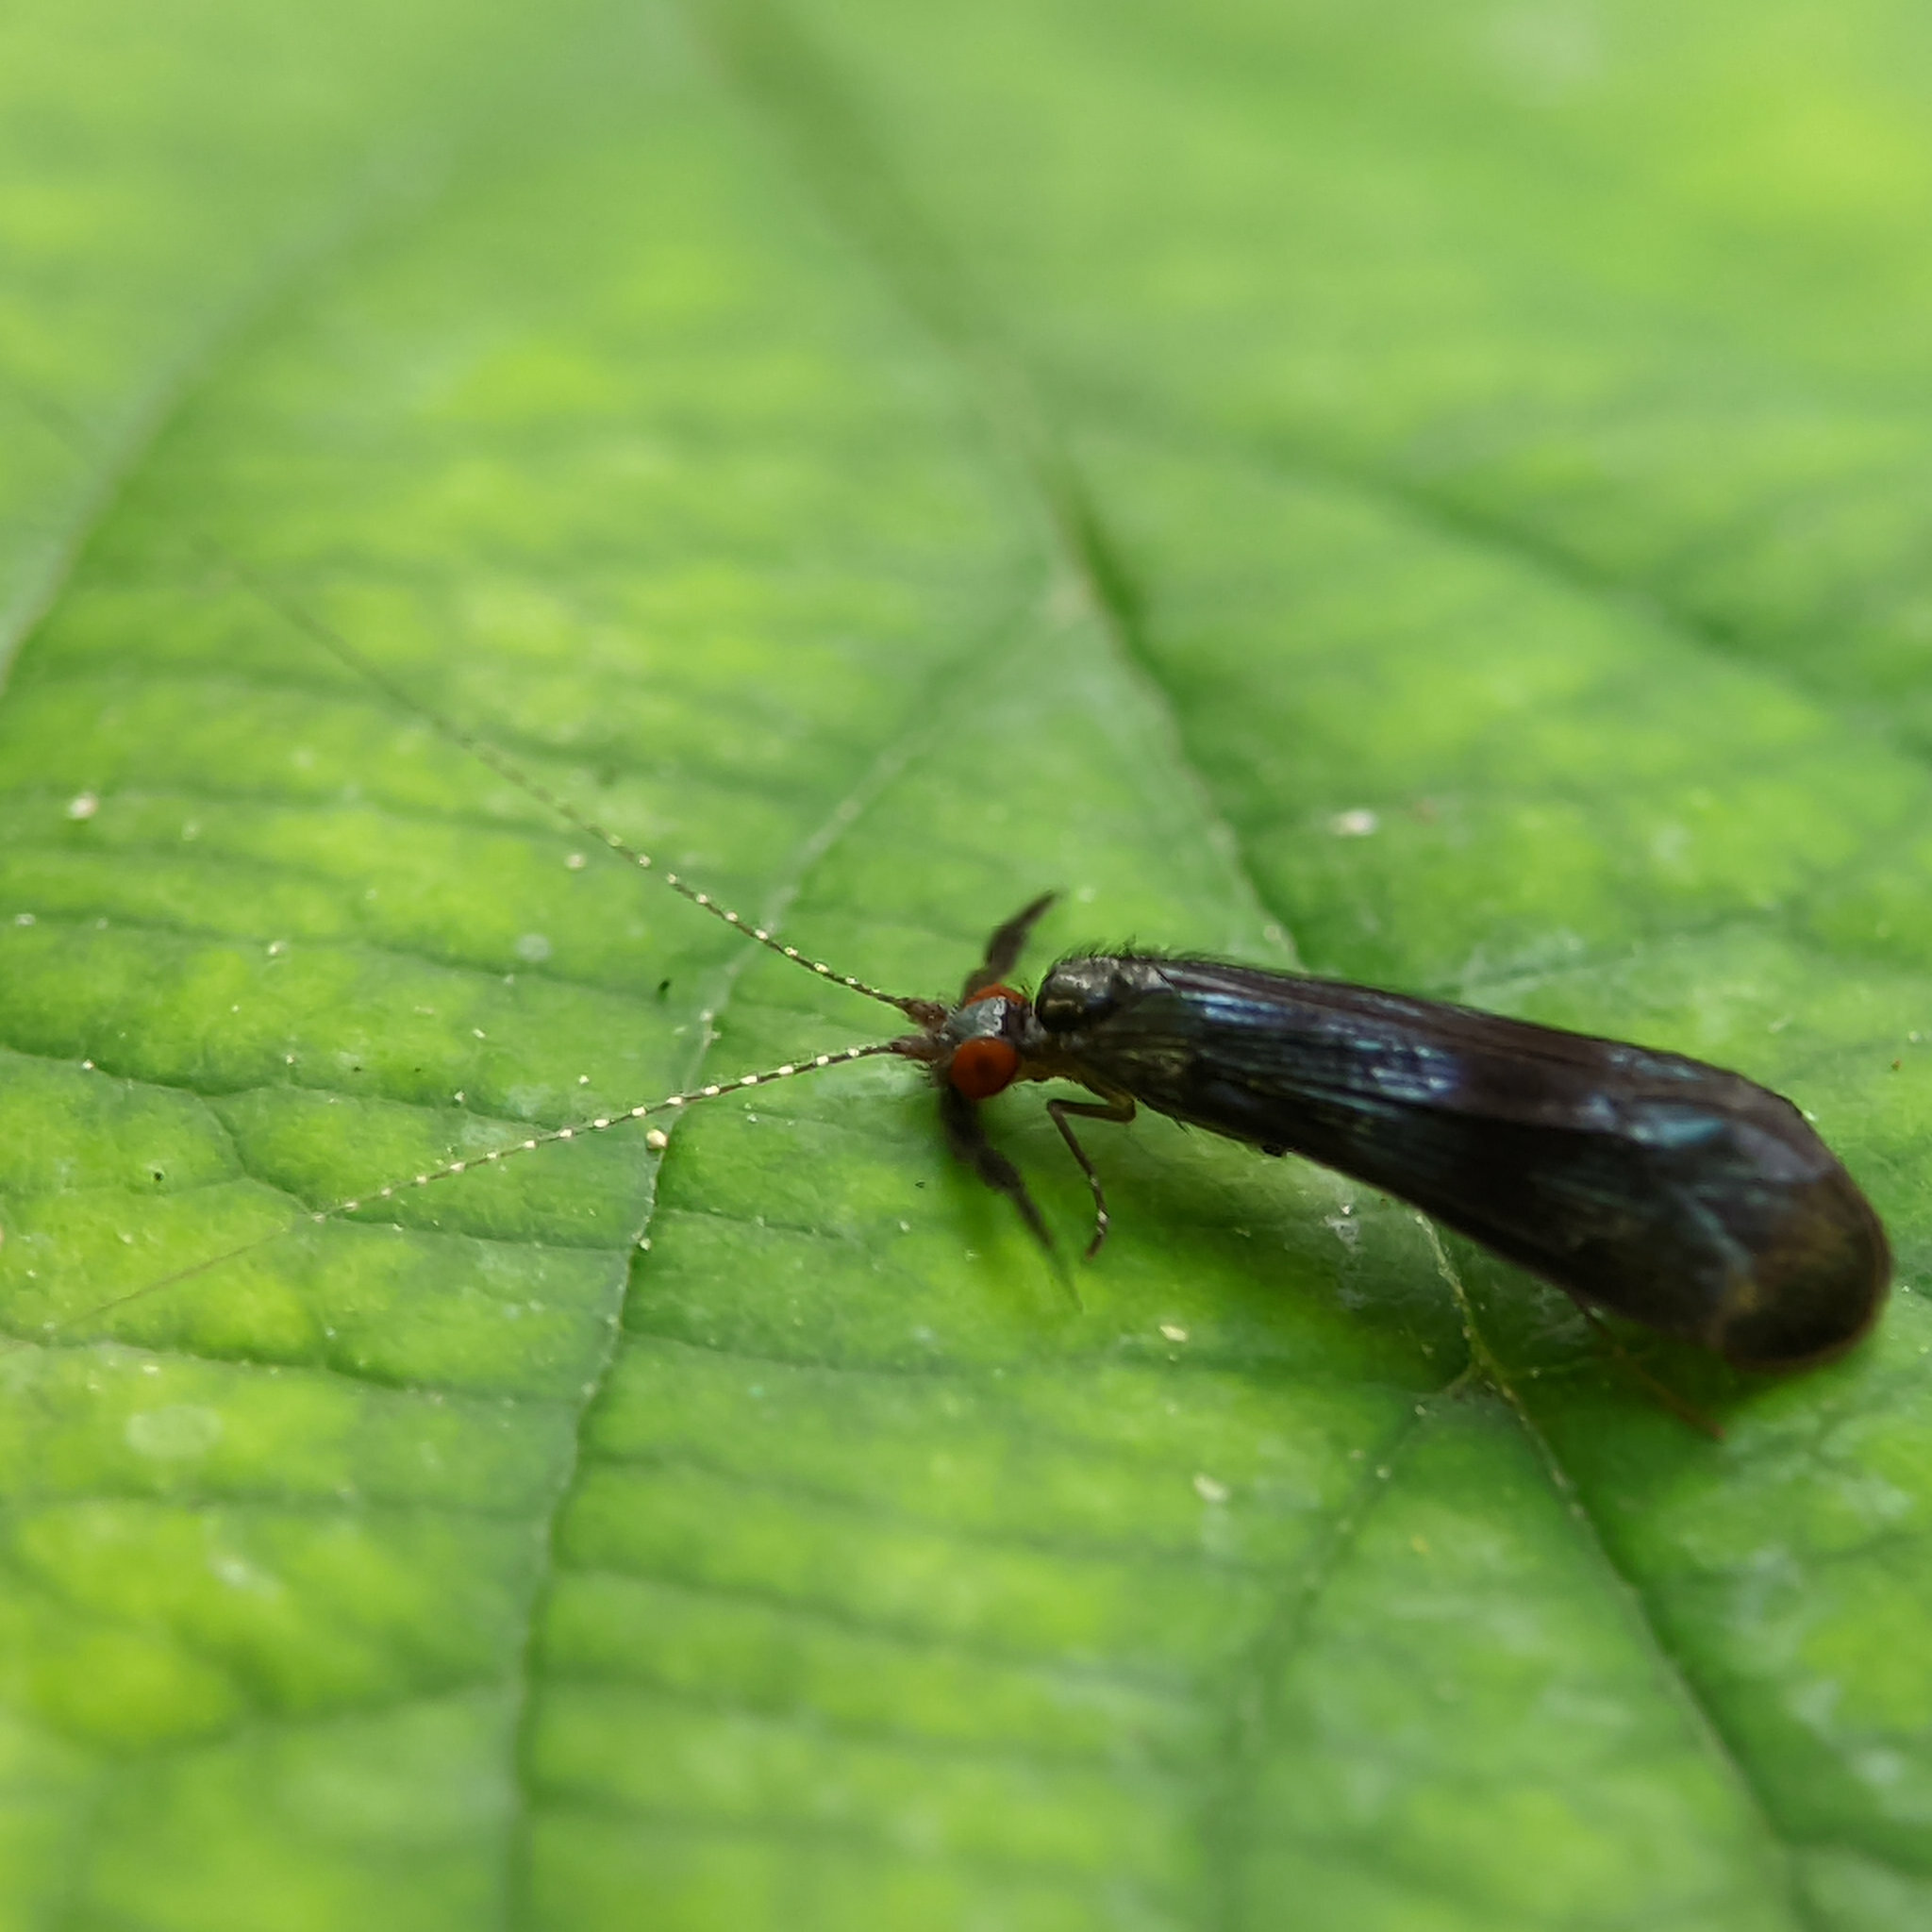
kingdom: Animalia
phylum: Arthropoda
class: Insecta
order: Trichoptera
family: Leptoceridae
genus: Mystacides
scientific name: Mystacides azureus
